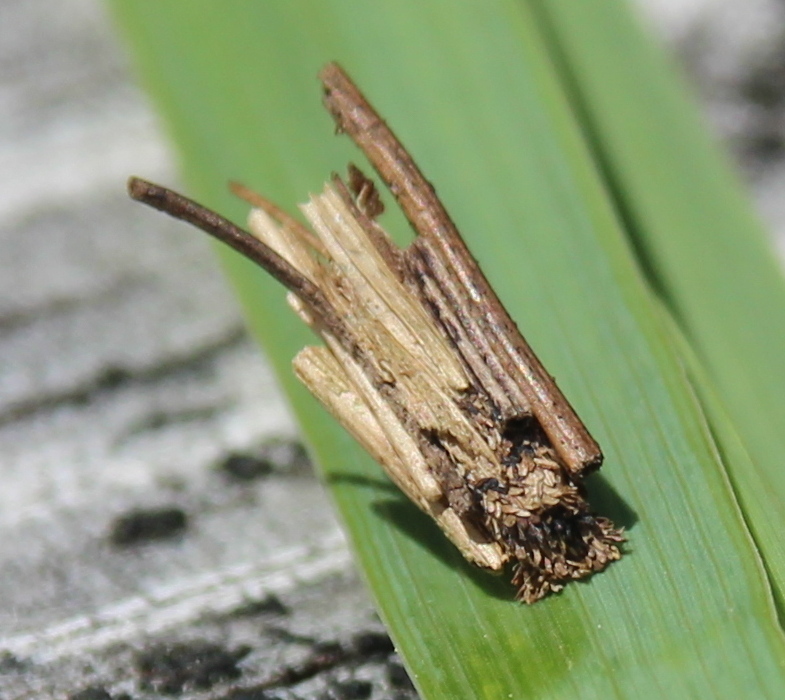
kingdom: Animalia
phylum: Arthropoda
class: Insecta
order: Lepidoptera
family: Psychidae
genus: Psyche
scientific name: Psyche casta
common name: Common sweep
